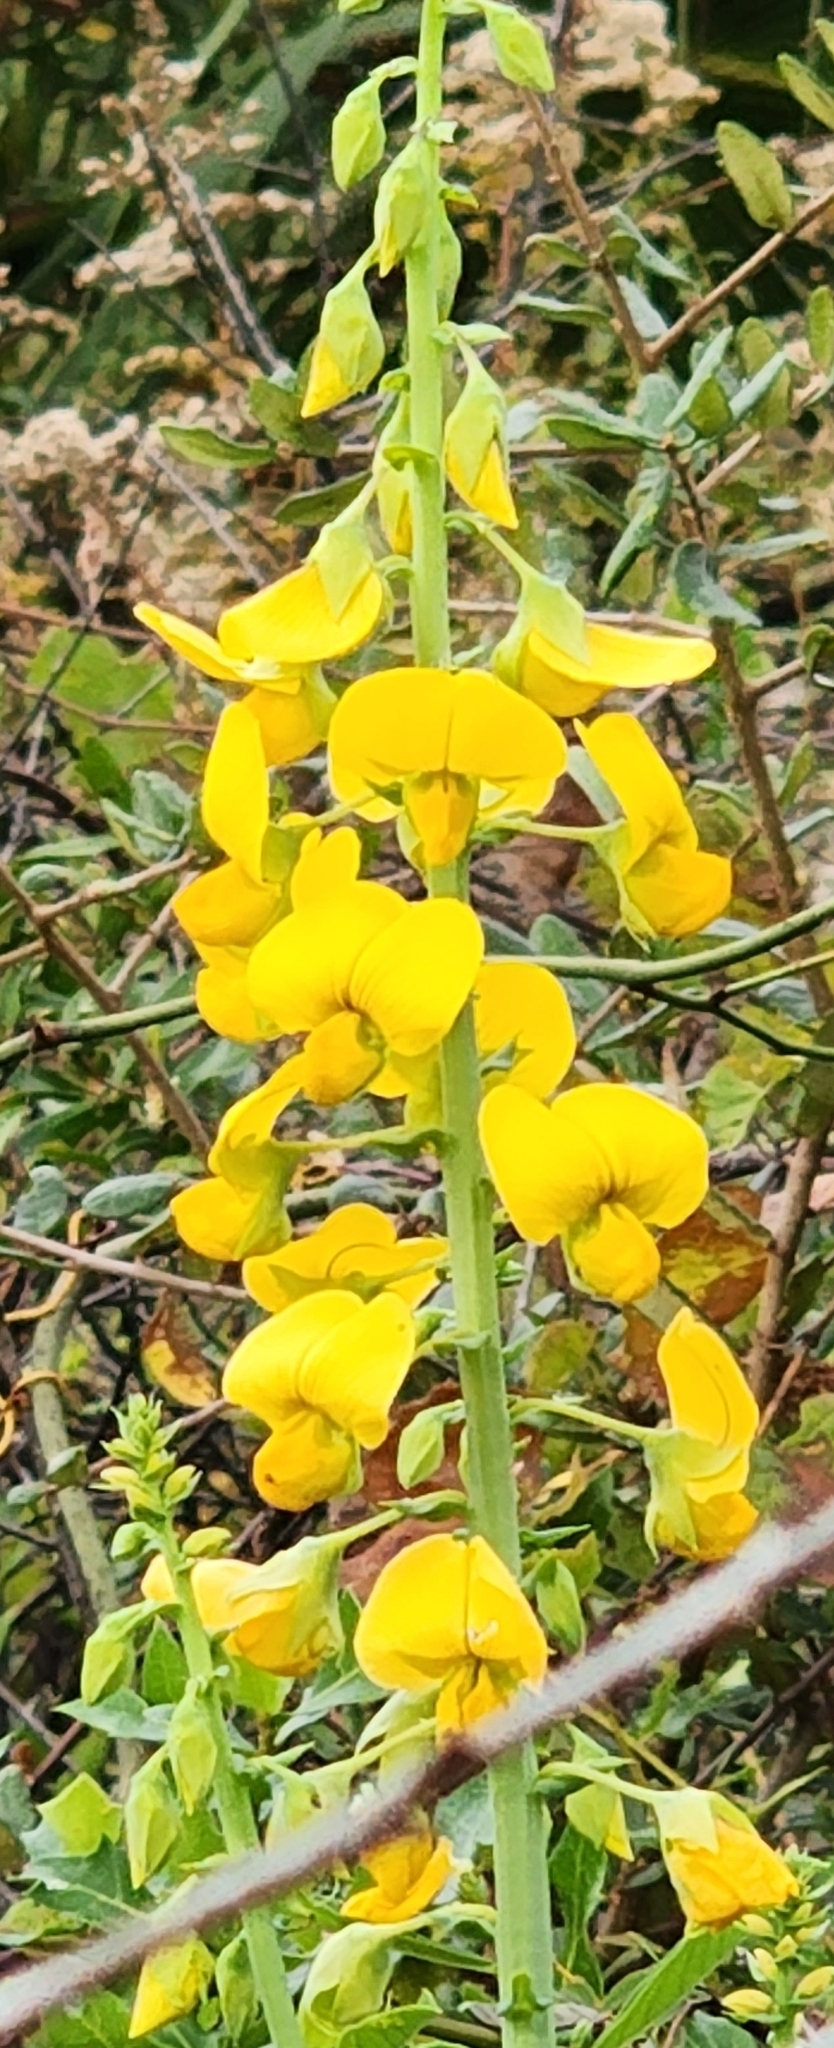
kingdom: Plantae
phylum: Tracheophyta
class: Magnoliopsida
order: Fabales
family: Fabaceae
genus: Crotalaria
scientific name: Crotalaria spectabilis
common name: Showy rattlebox
